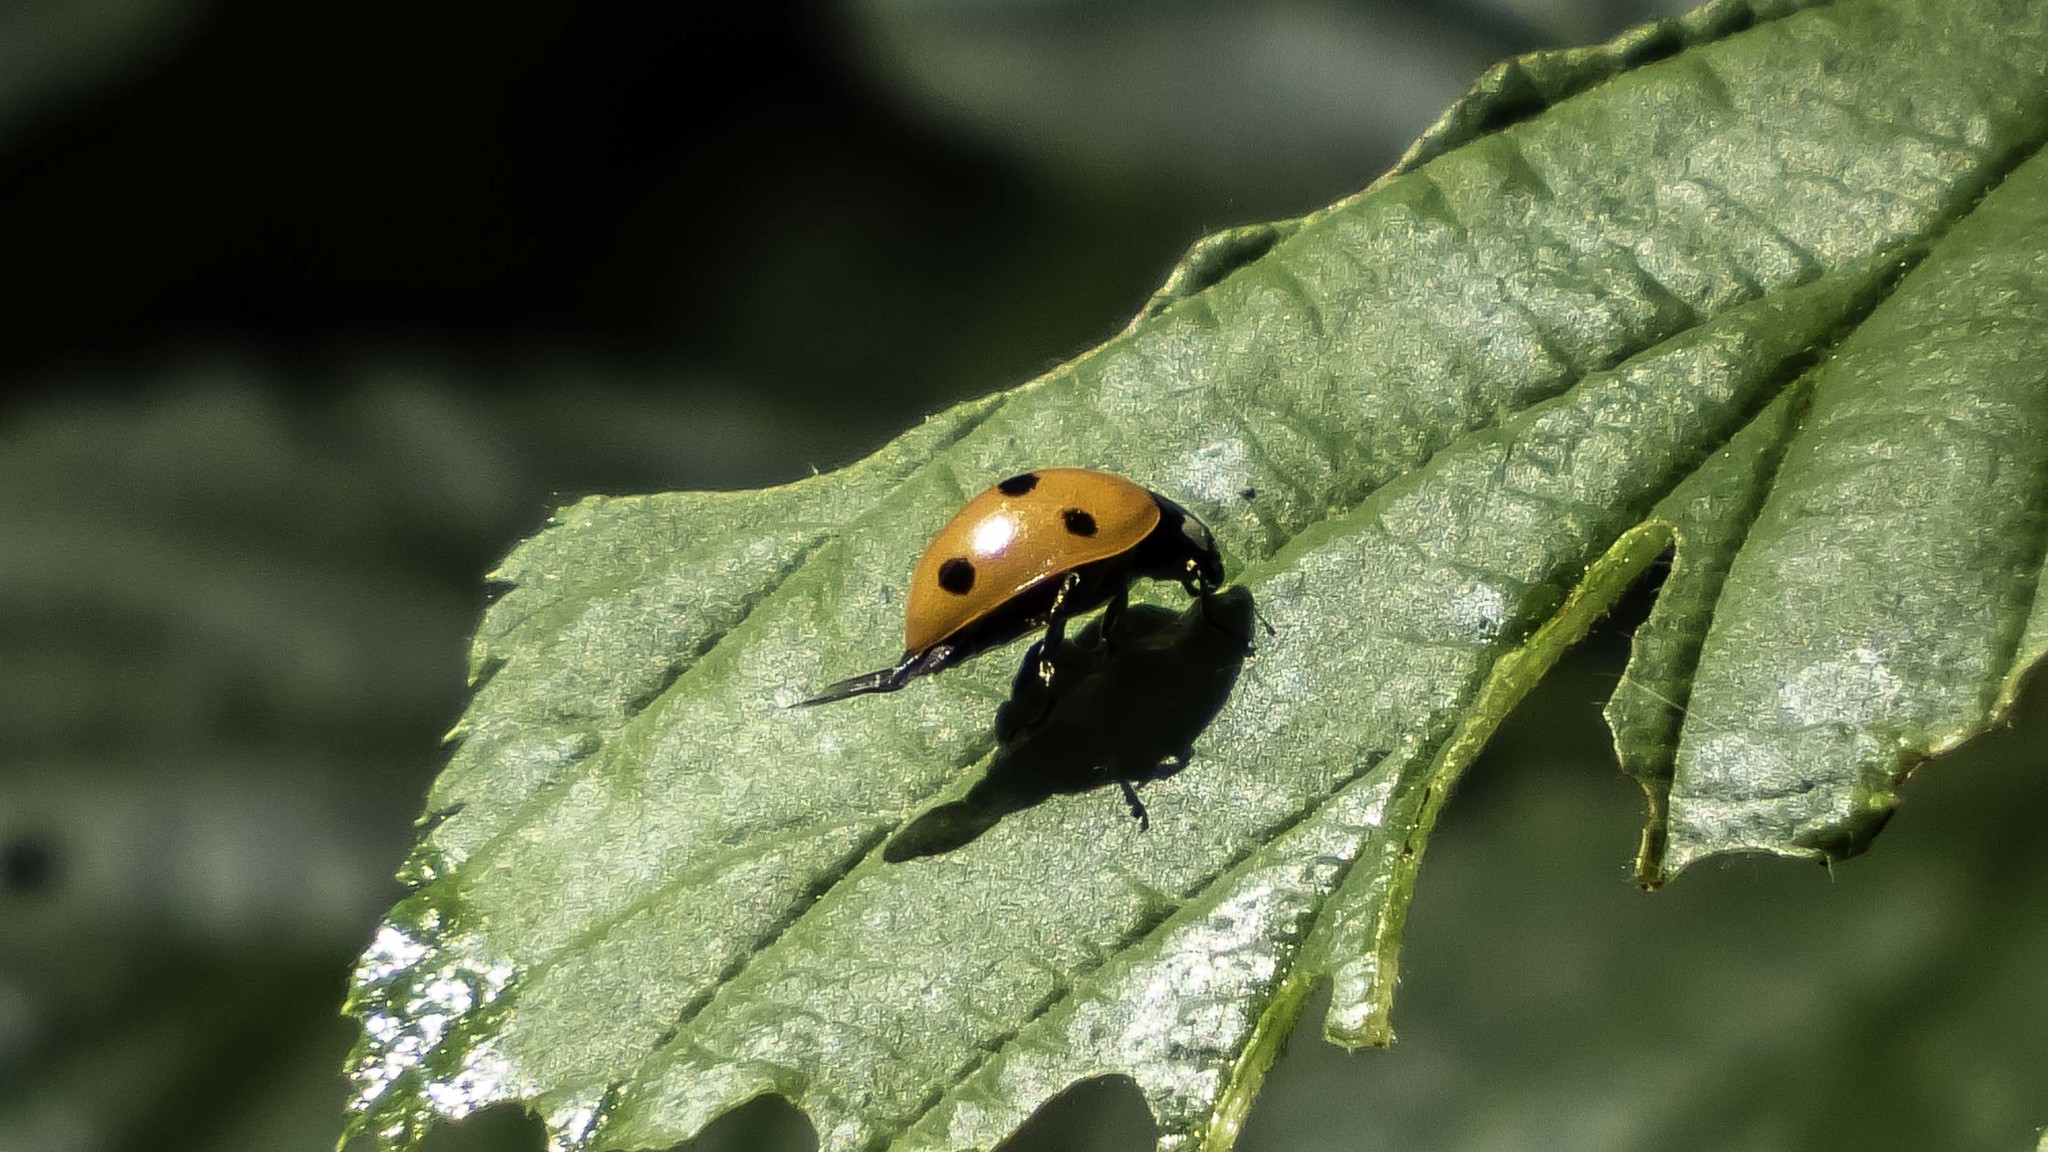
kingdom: Animalia
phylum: Arthropoda
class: Insecta
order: Coleoptera
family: Coccinellidae
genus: Coccinella
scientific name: Coccinella septempunctata
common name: Sevenspotted lady beetle
